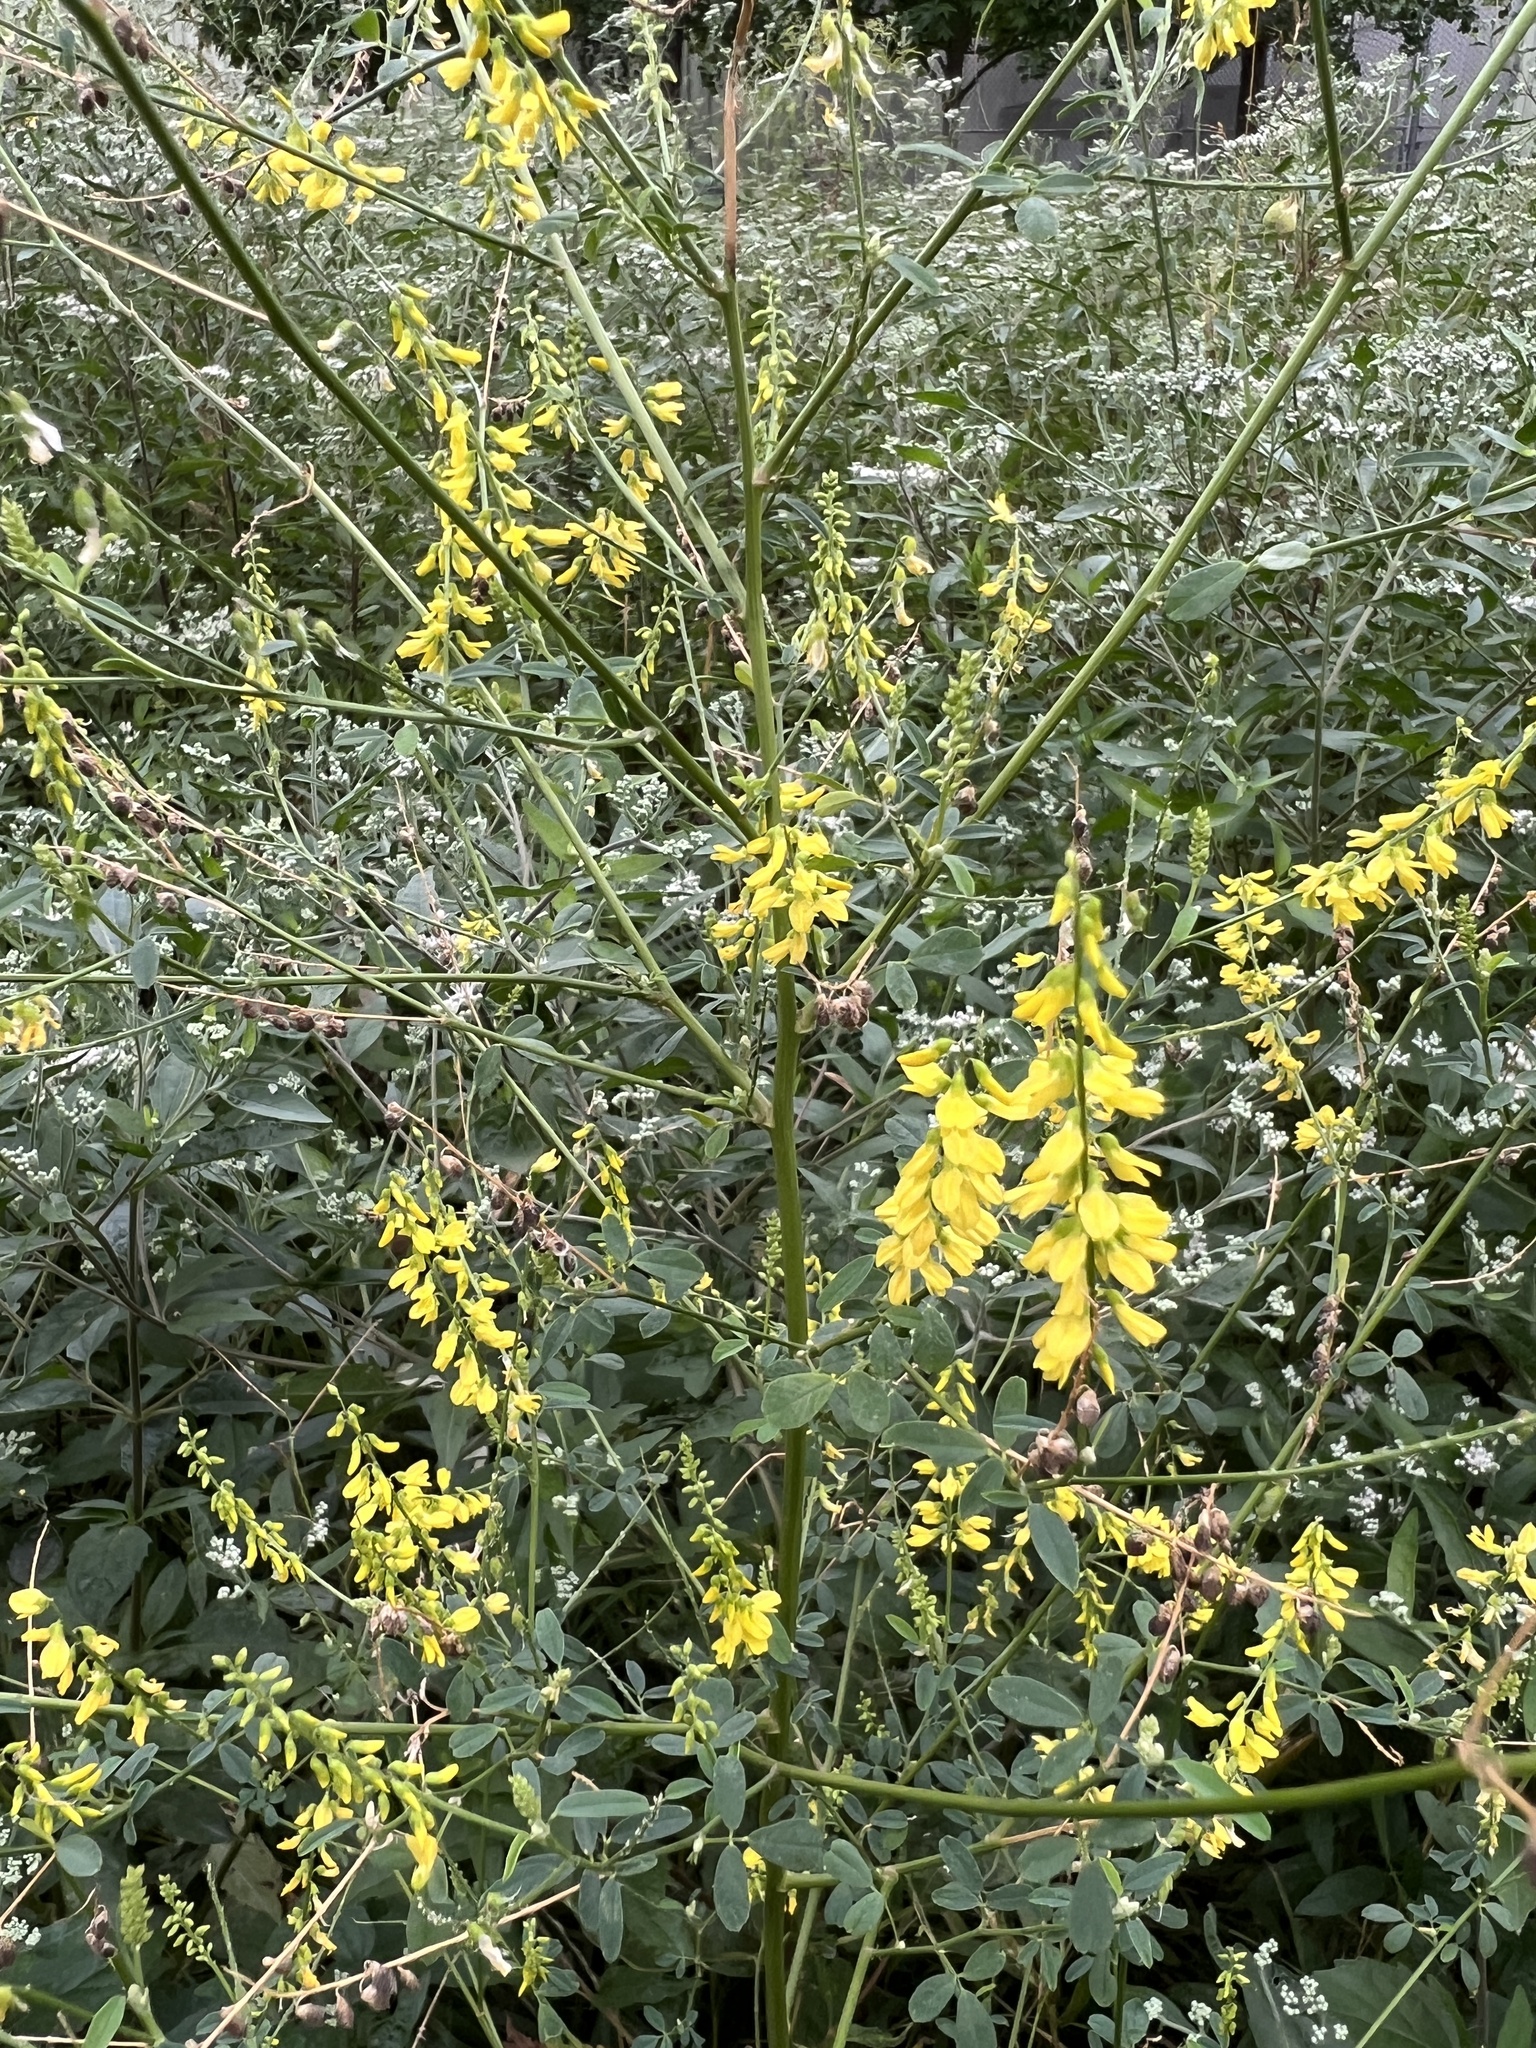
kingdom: Plantae
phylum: Tracheophyta
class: Magnoliopsida
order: Fabales
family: Fabaceae
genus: Melilotus
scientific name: Melilotus officinalis
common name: Sweetclover
